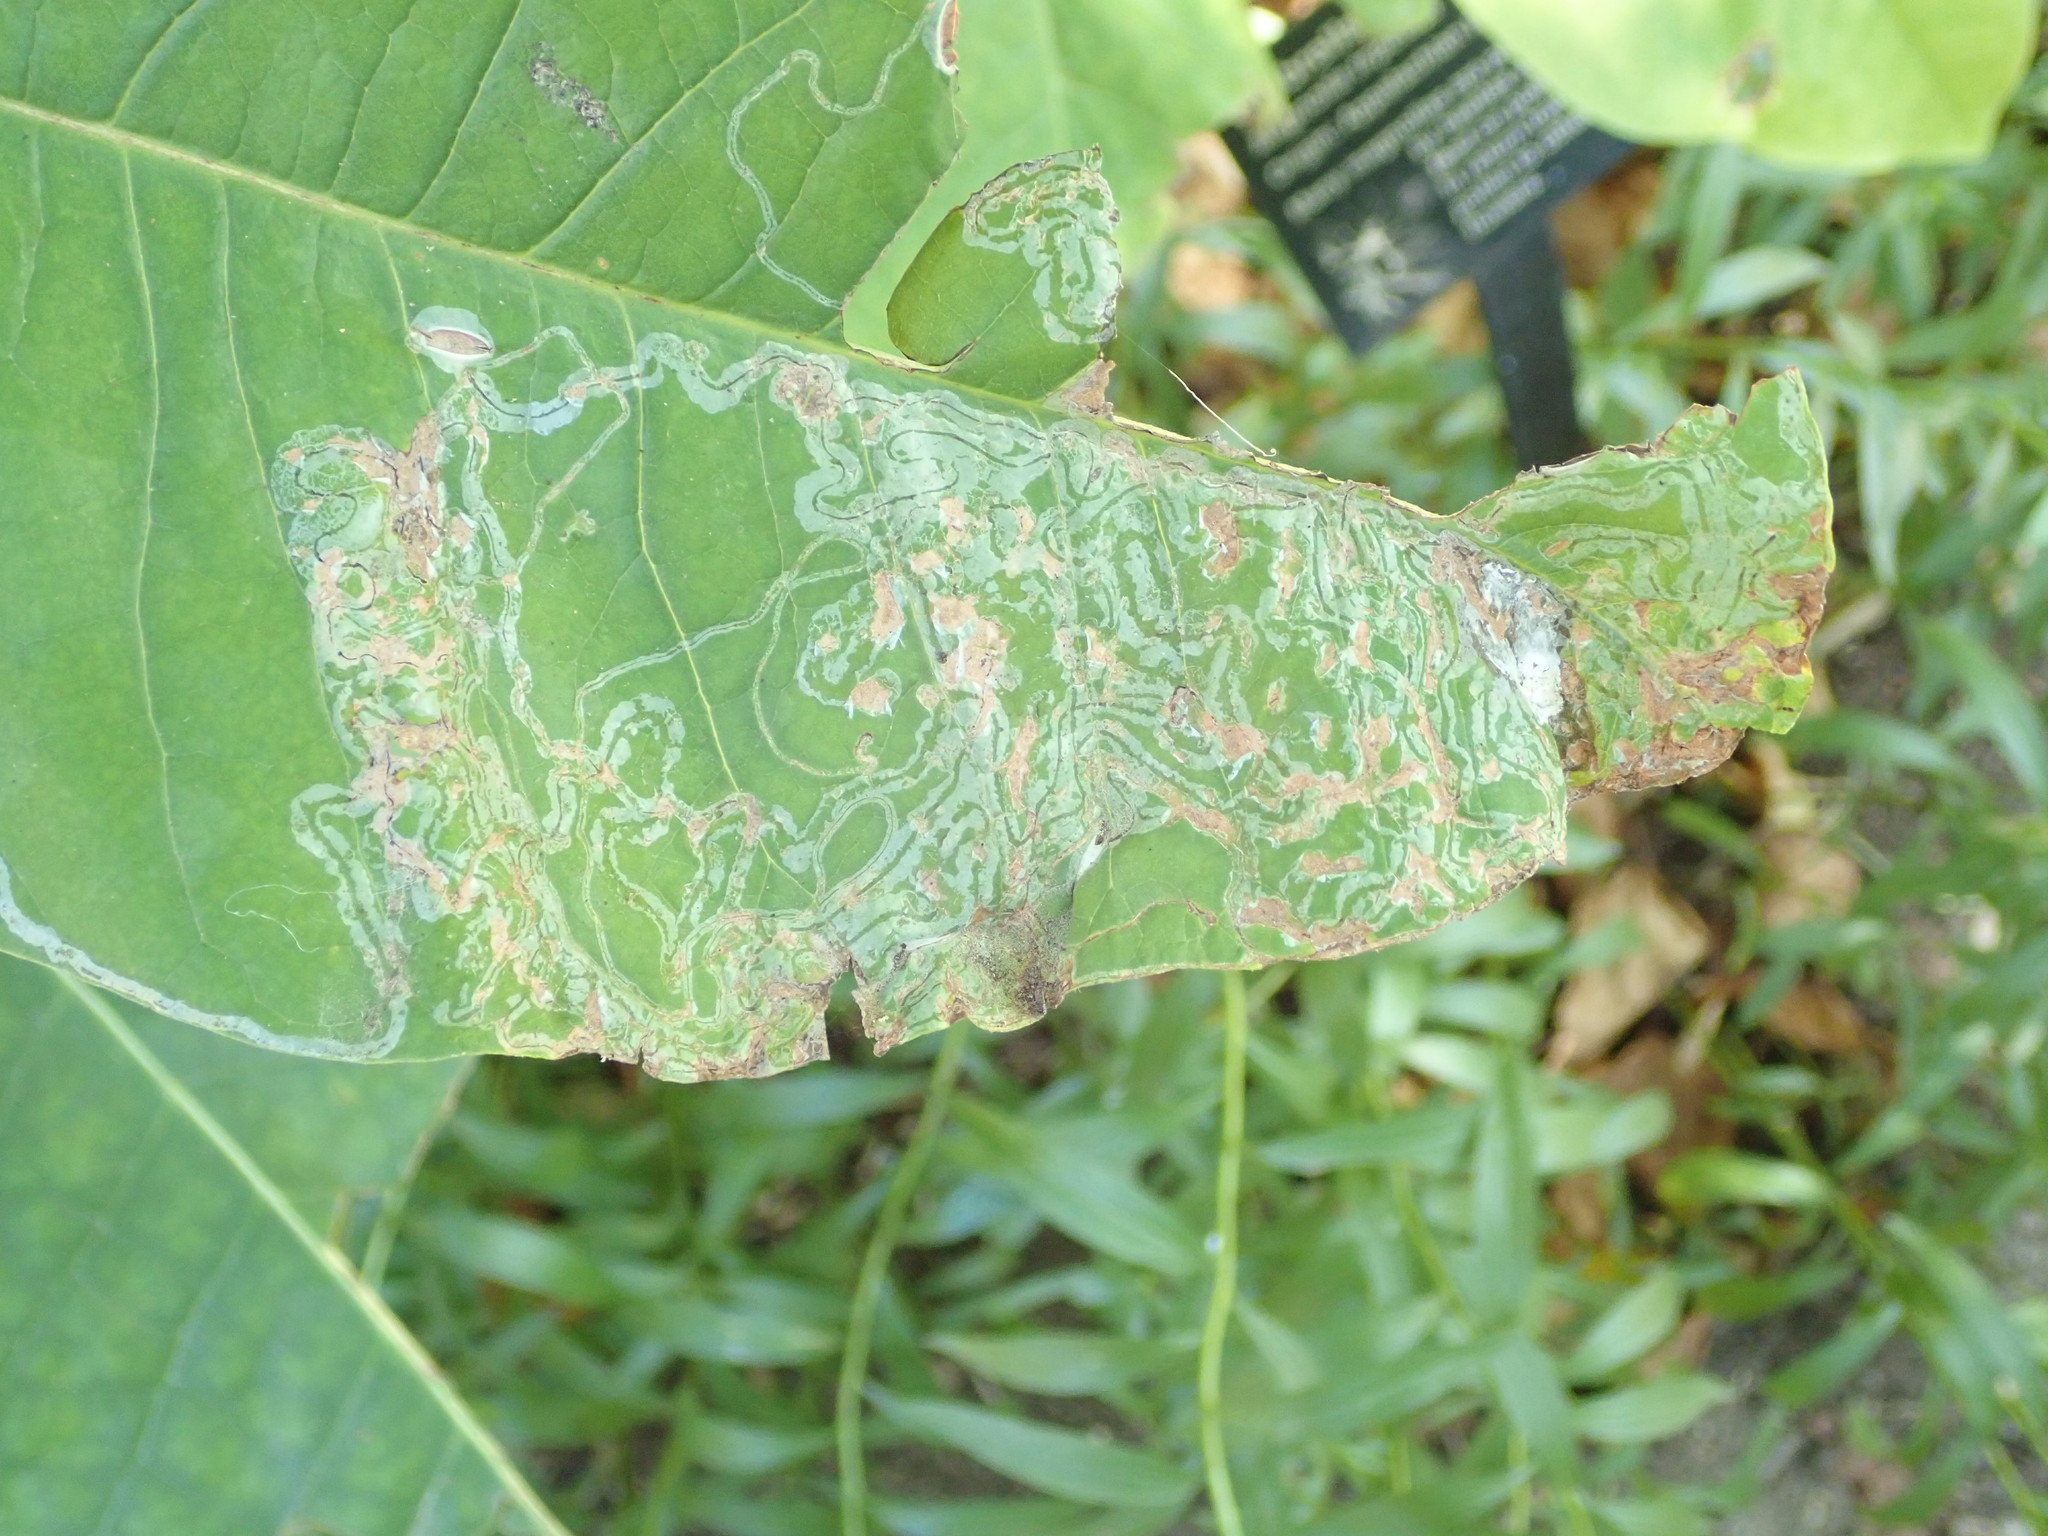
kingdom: Animalia
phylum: Arthropoda
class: Insecta
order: Lepidoptera
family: Gracillariidae
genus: Phyllocnistis
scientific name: Phyllocnistis liriodendronella
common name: Tulip tree leaf miner
